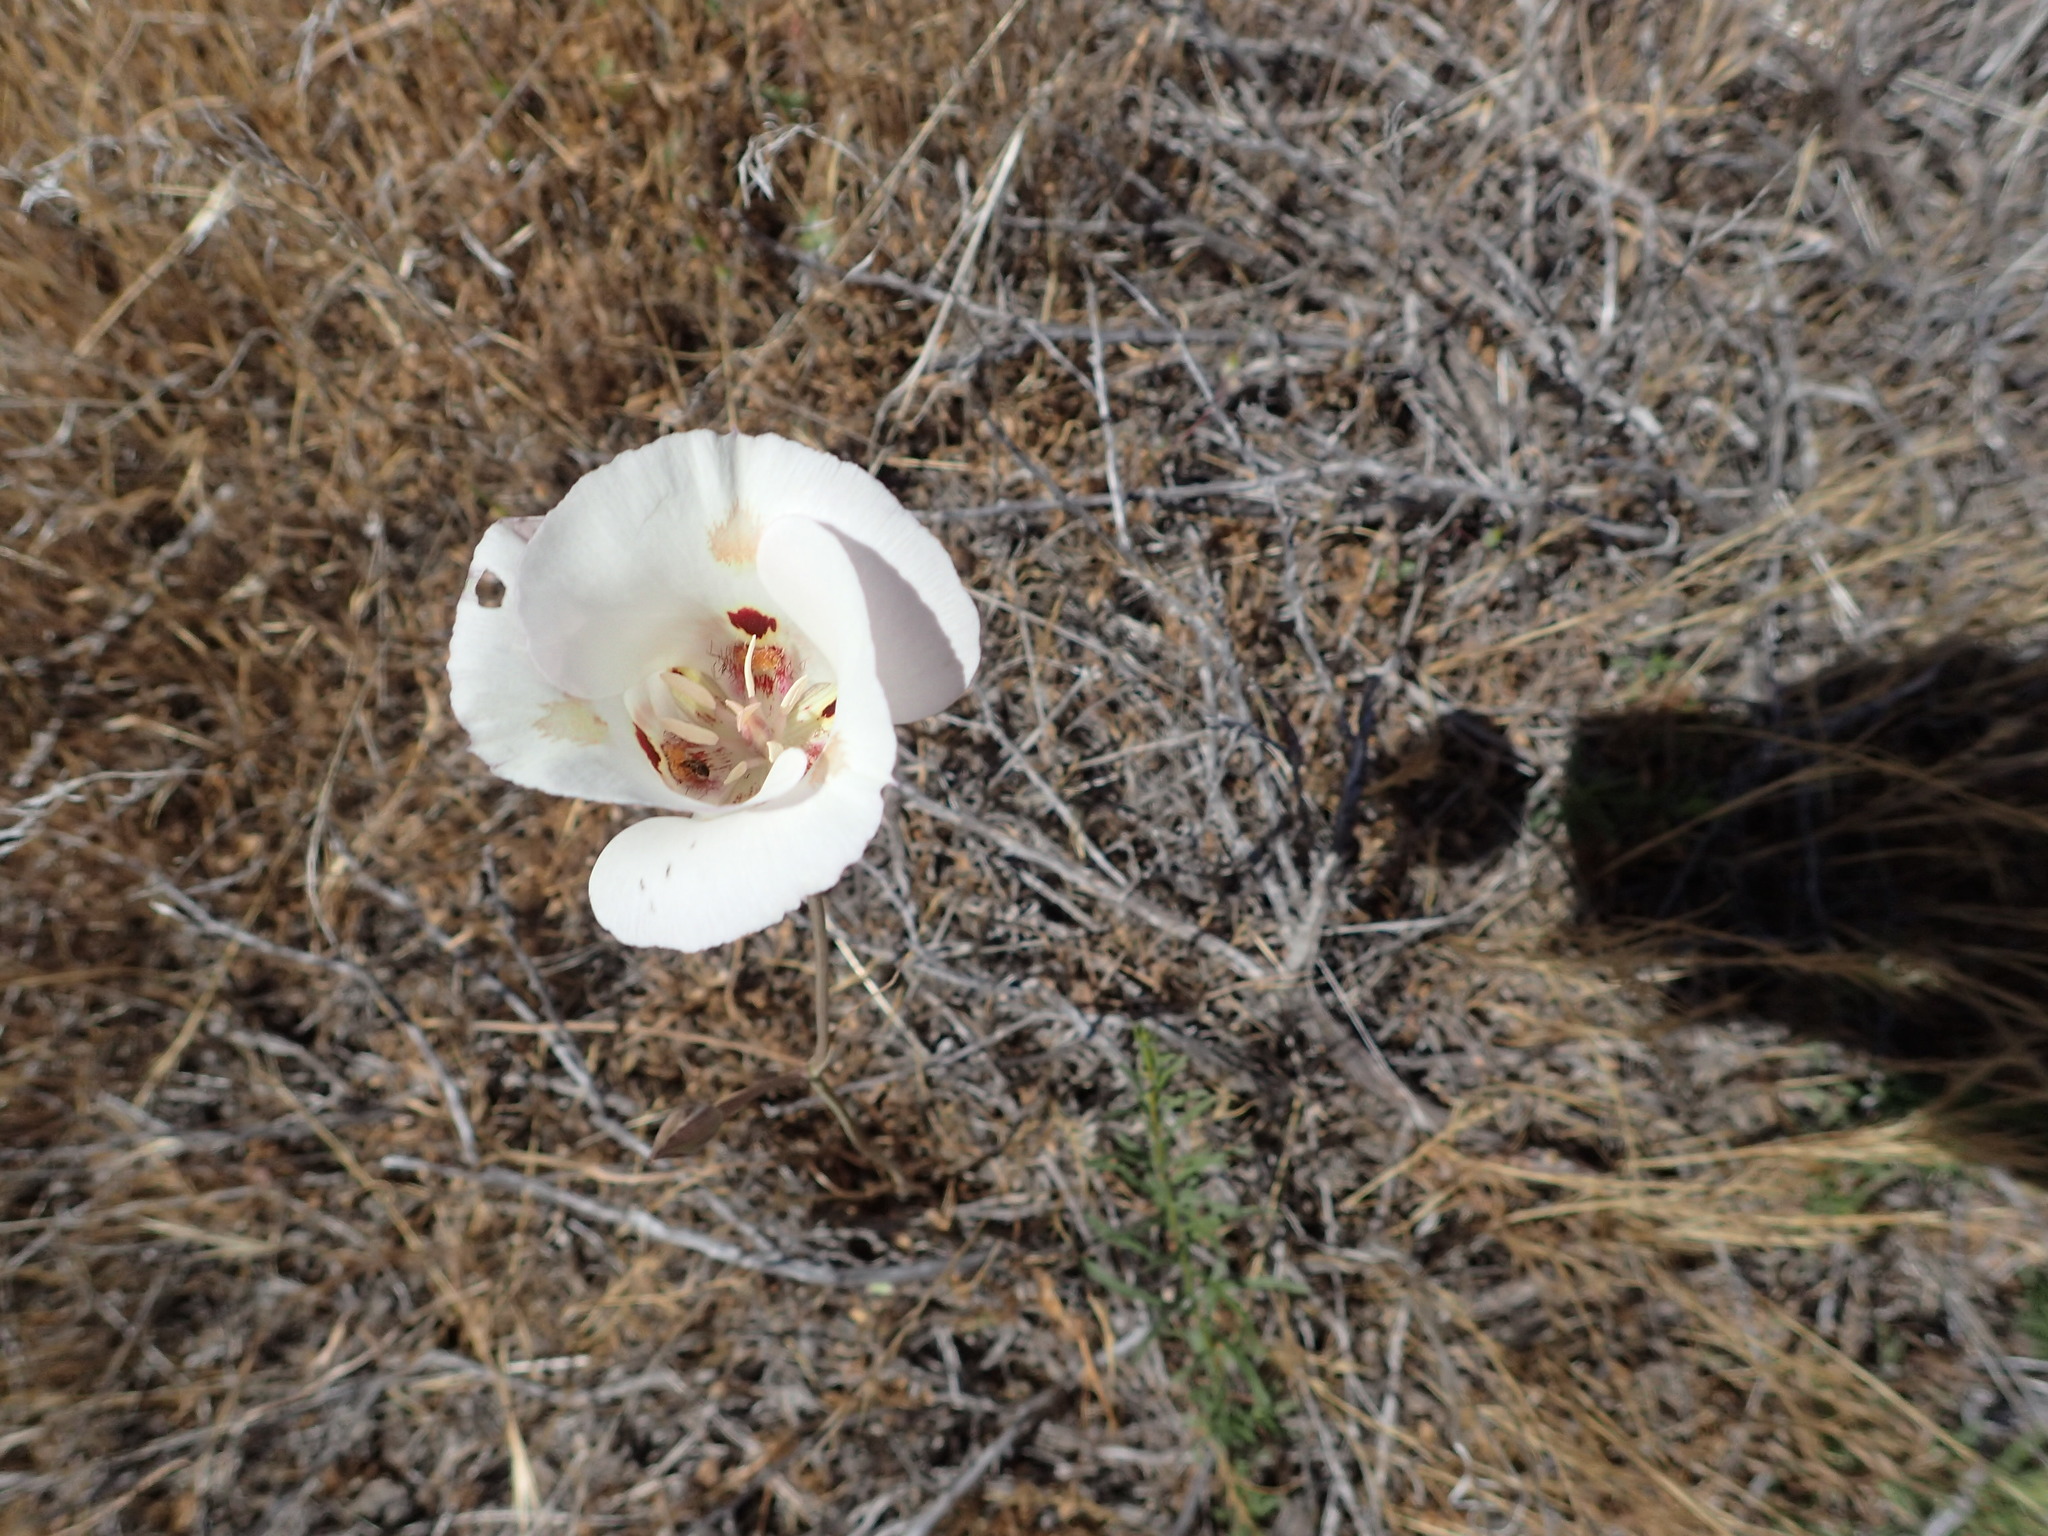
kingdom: Plantae
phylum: Tracheophyta
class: Liliopsida
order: Liliales
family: Liliaceae
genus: Calochortus
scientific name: Calochortus venustus
